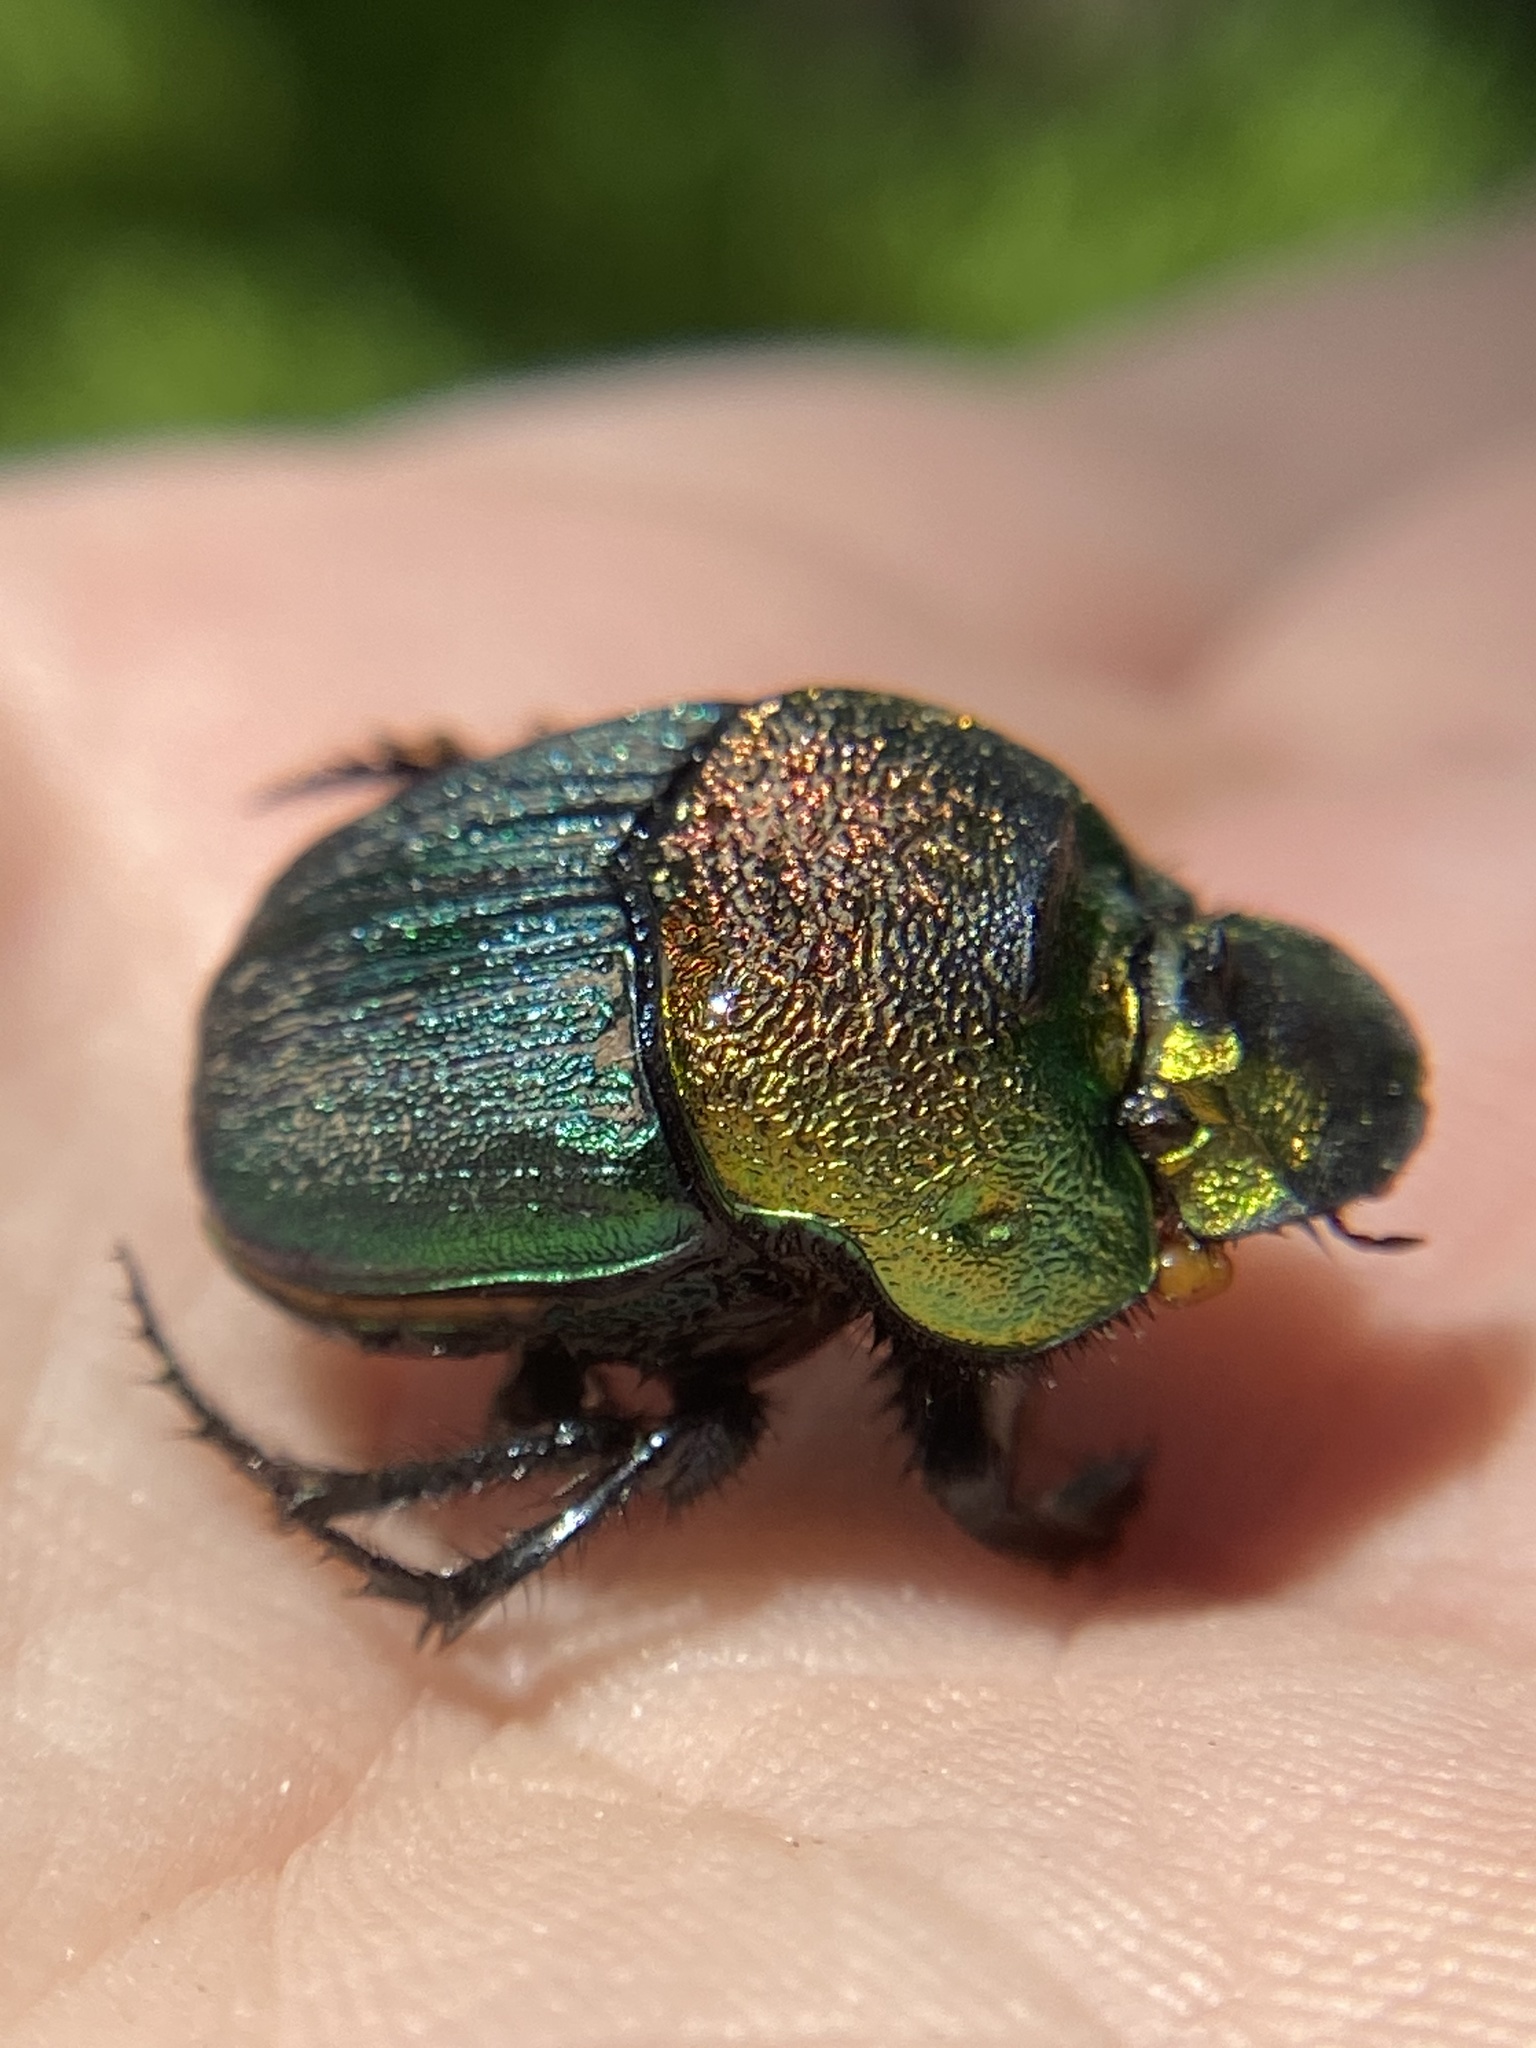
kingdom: Animalia
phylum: Arthropoda
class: Insecta
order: Coleoptera
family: Scarabaeidae
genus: Phanaeus
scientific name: Phanaeus vindex
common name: Rainbow scarab
